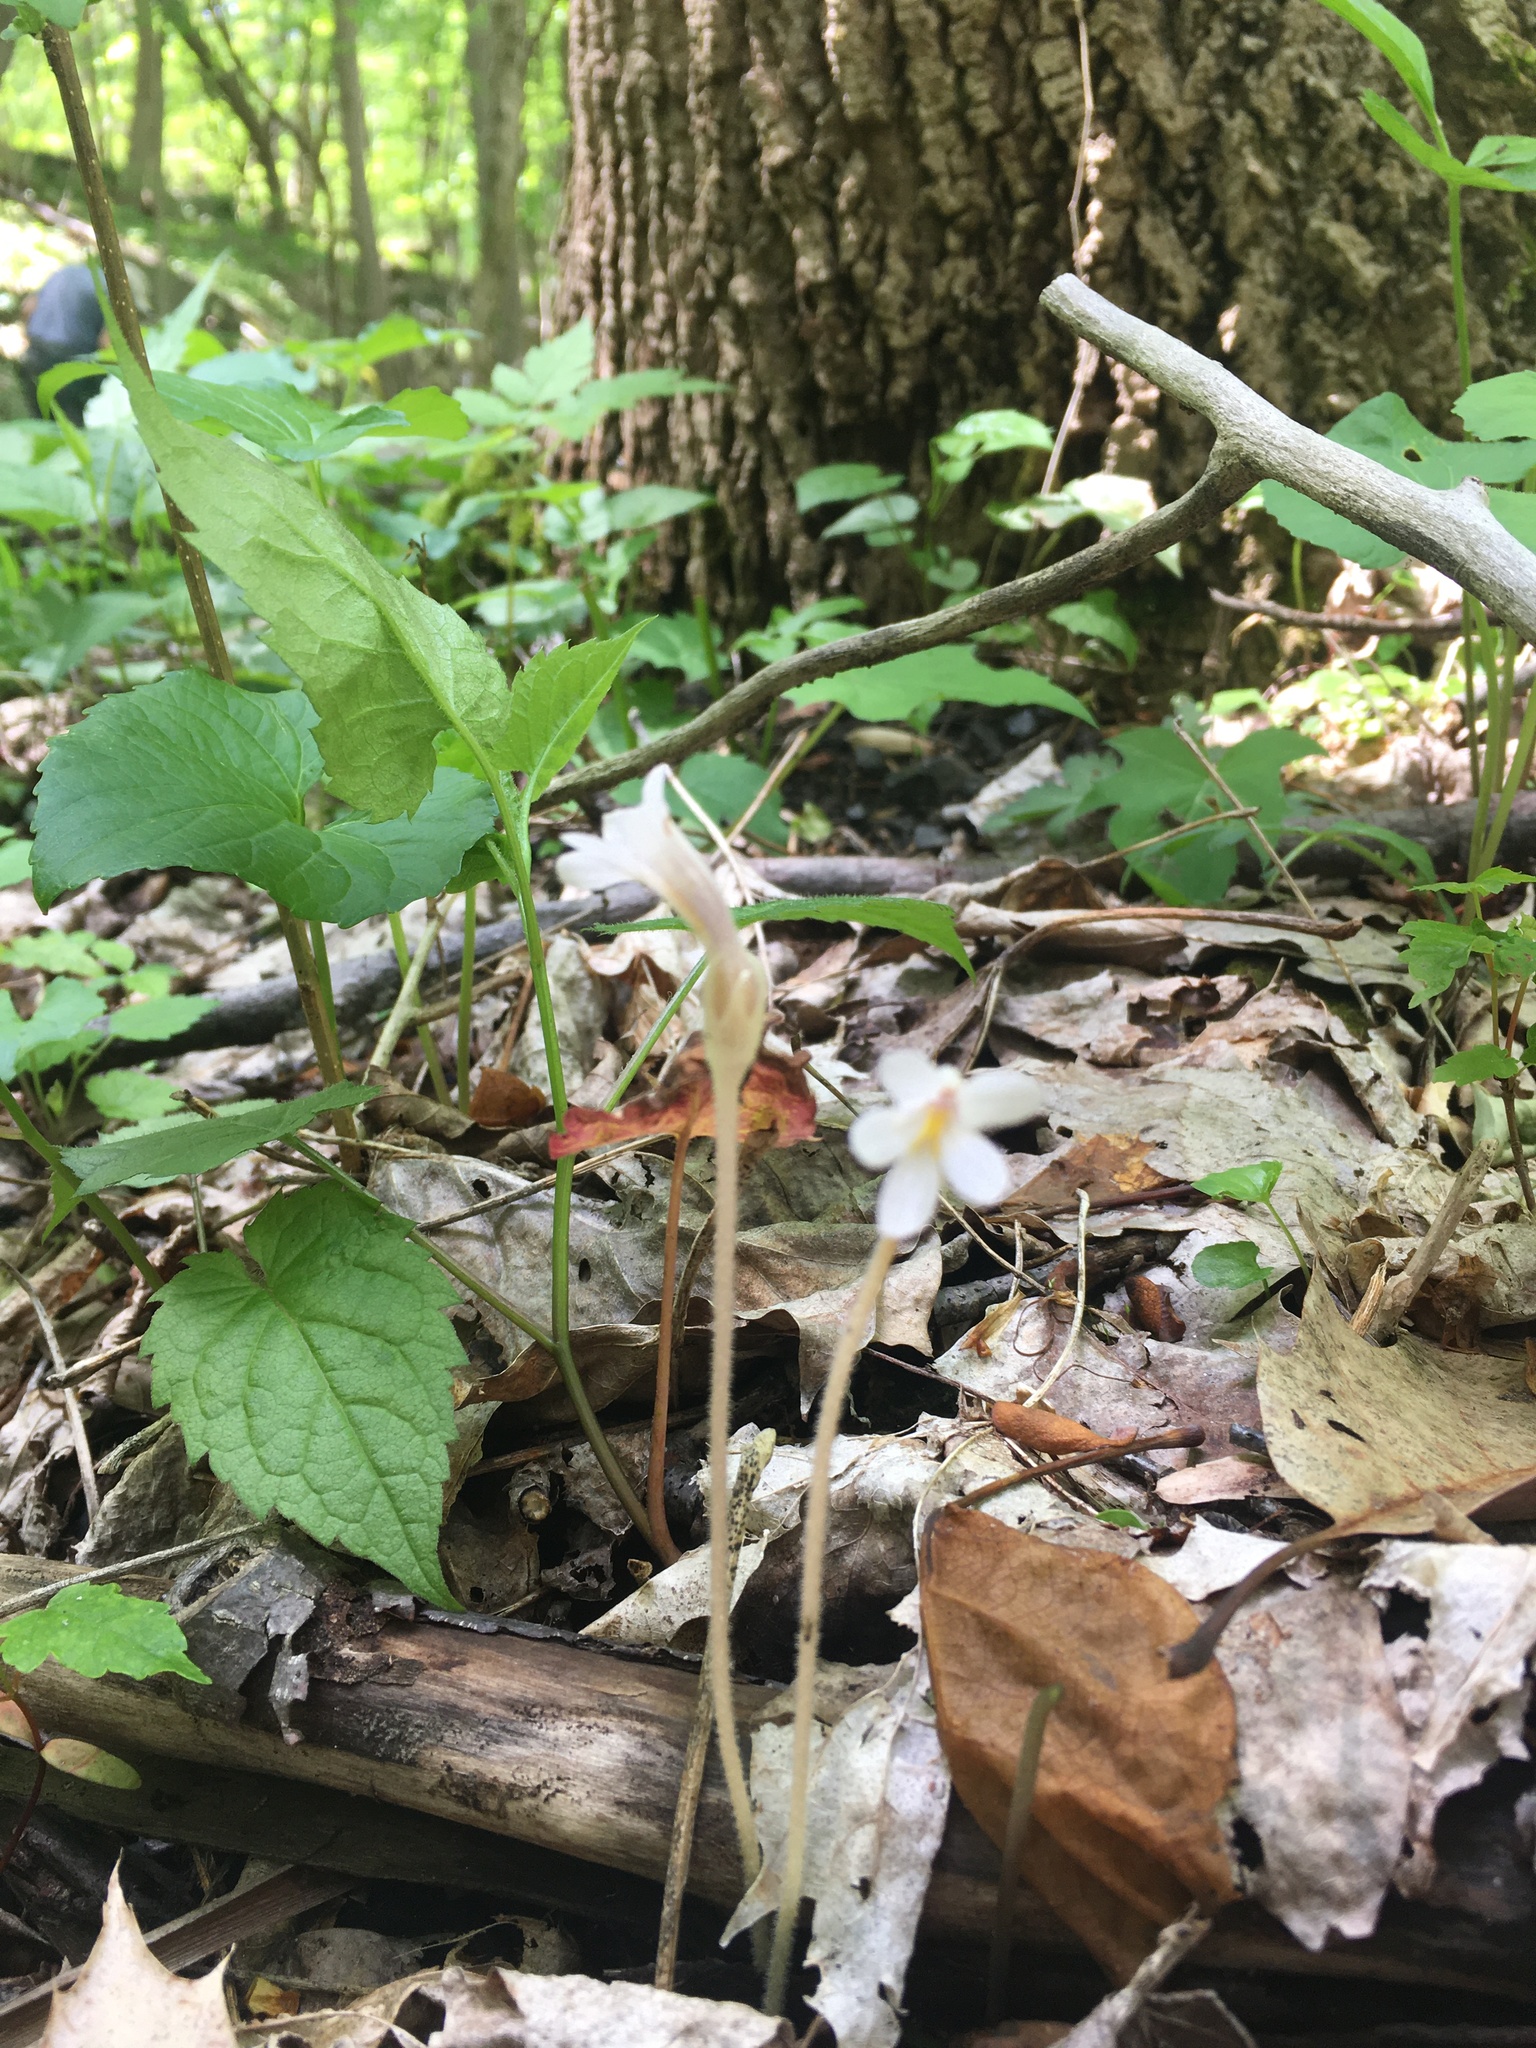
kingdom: Plantae
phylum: Tracheophyta
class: Magnoliopsida
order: Lamiales
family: Orobanchaceae
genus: Aphyllon
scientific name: Aphyllon uniflorum
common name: One-flowered broomrape
